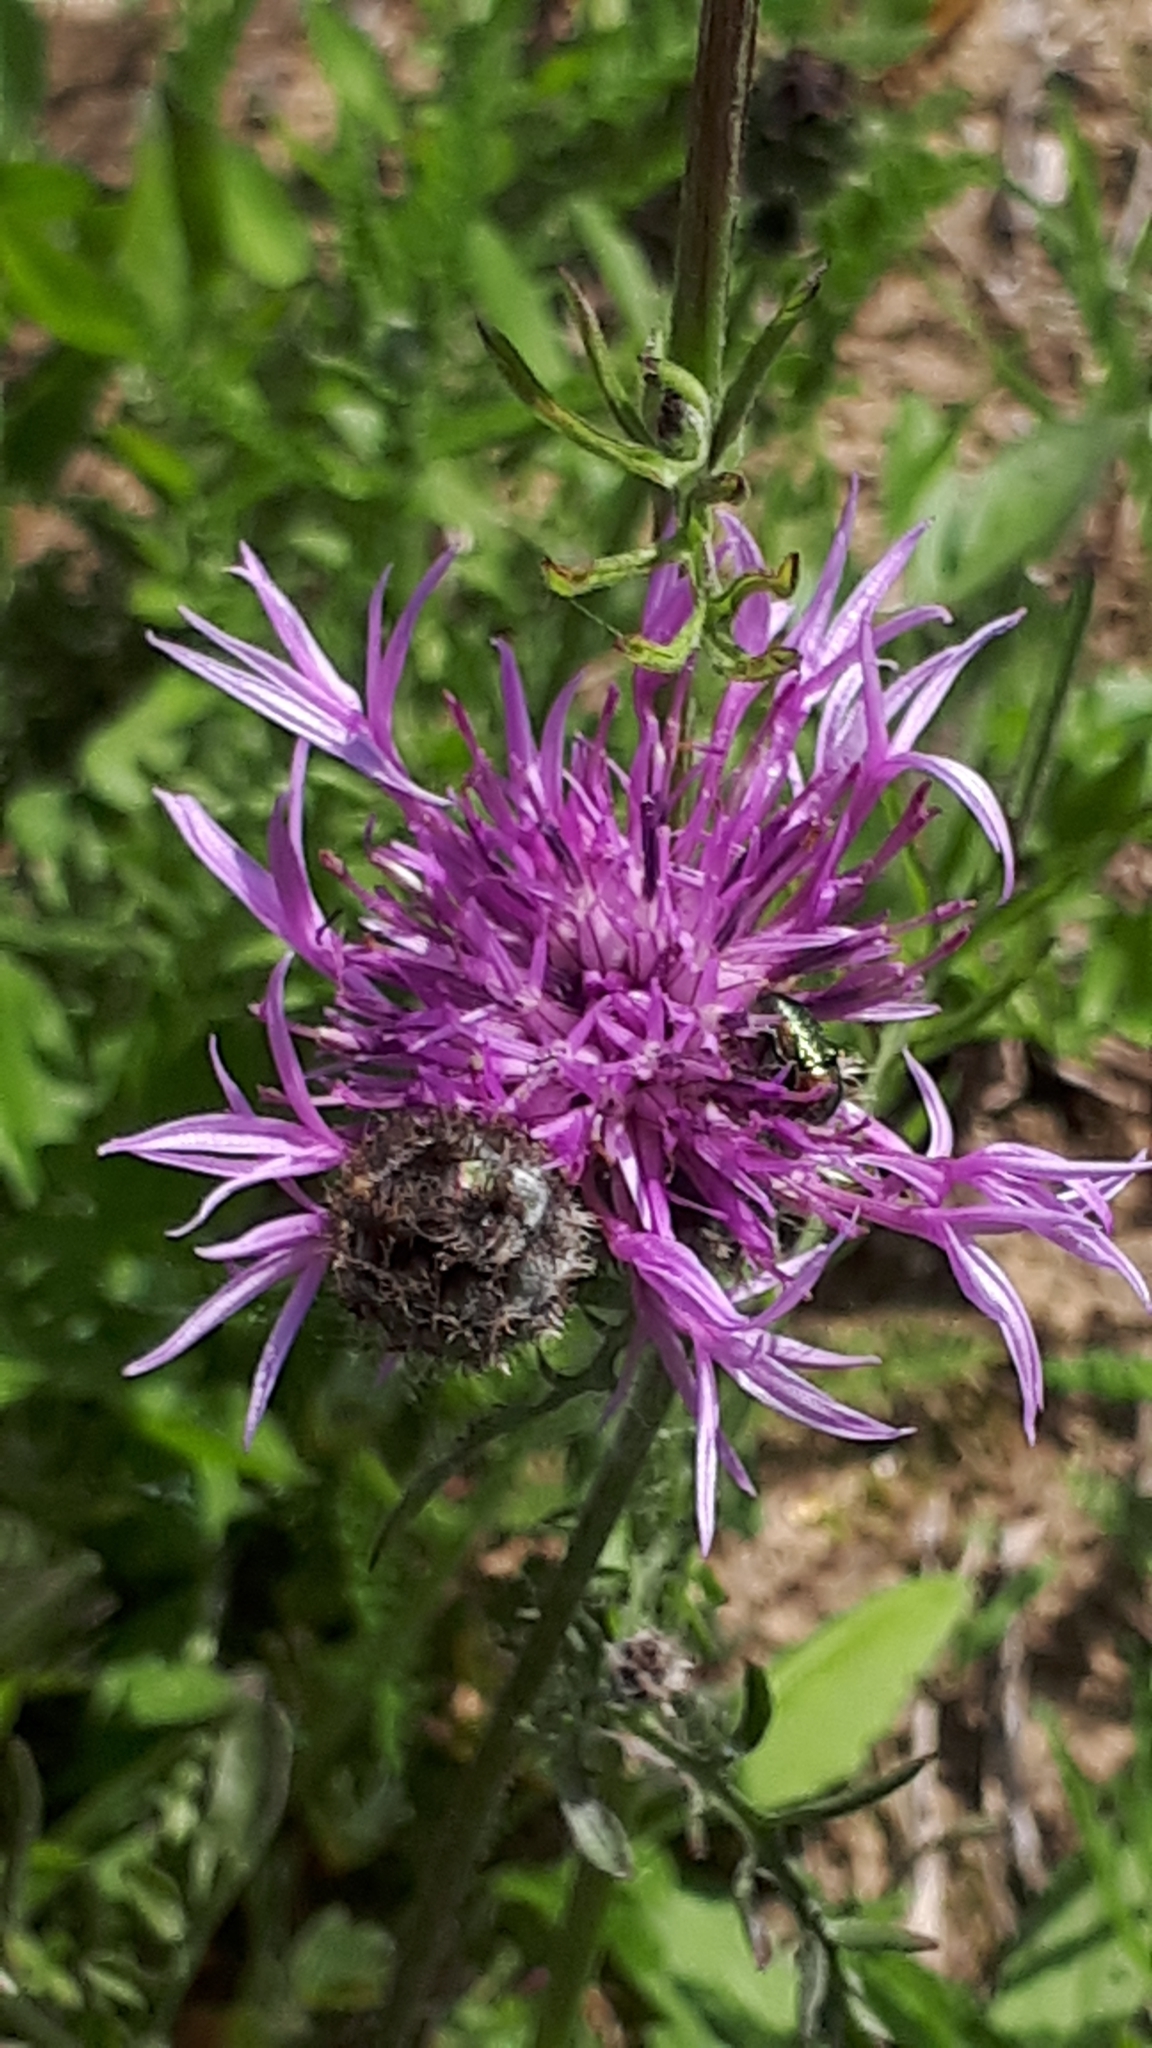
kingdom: Plantae
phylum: Tracheophyta
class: Magnoliopsida
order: Asterales
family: Asteraceae
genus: Centaurea
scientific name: Centaurea scabiosa
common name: Greater knapweed
